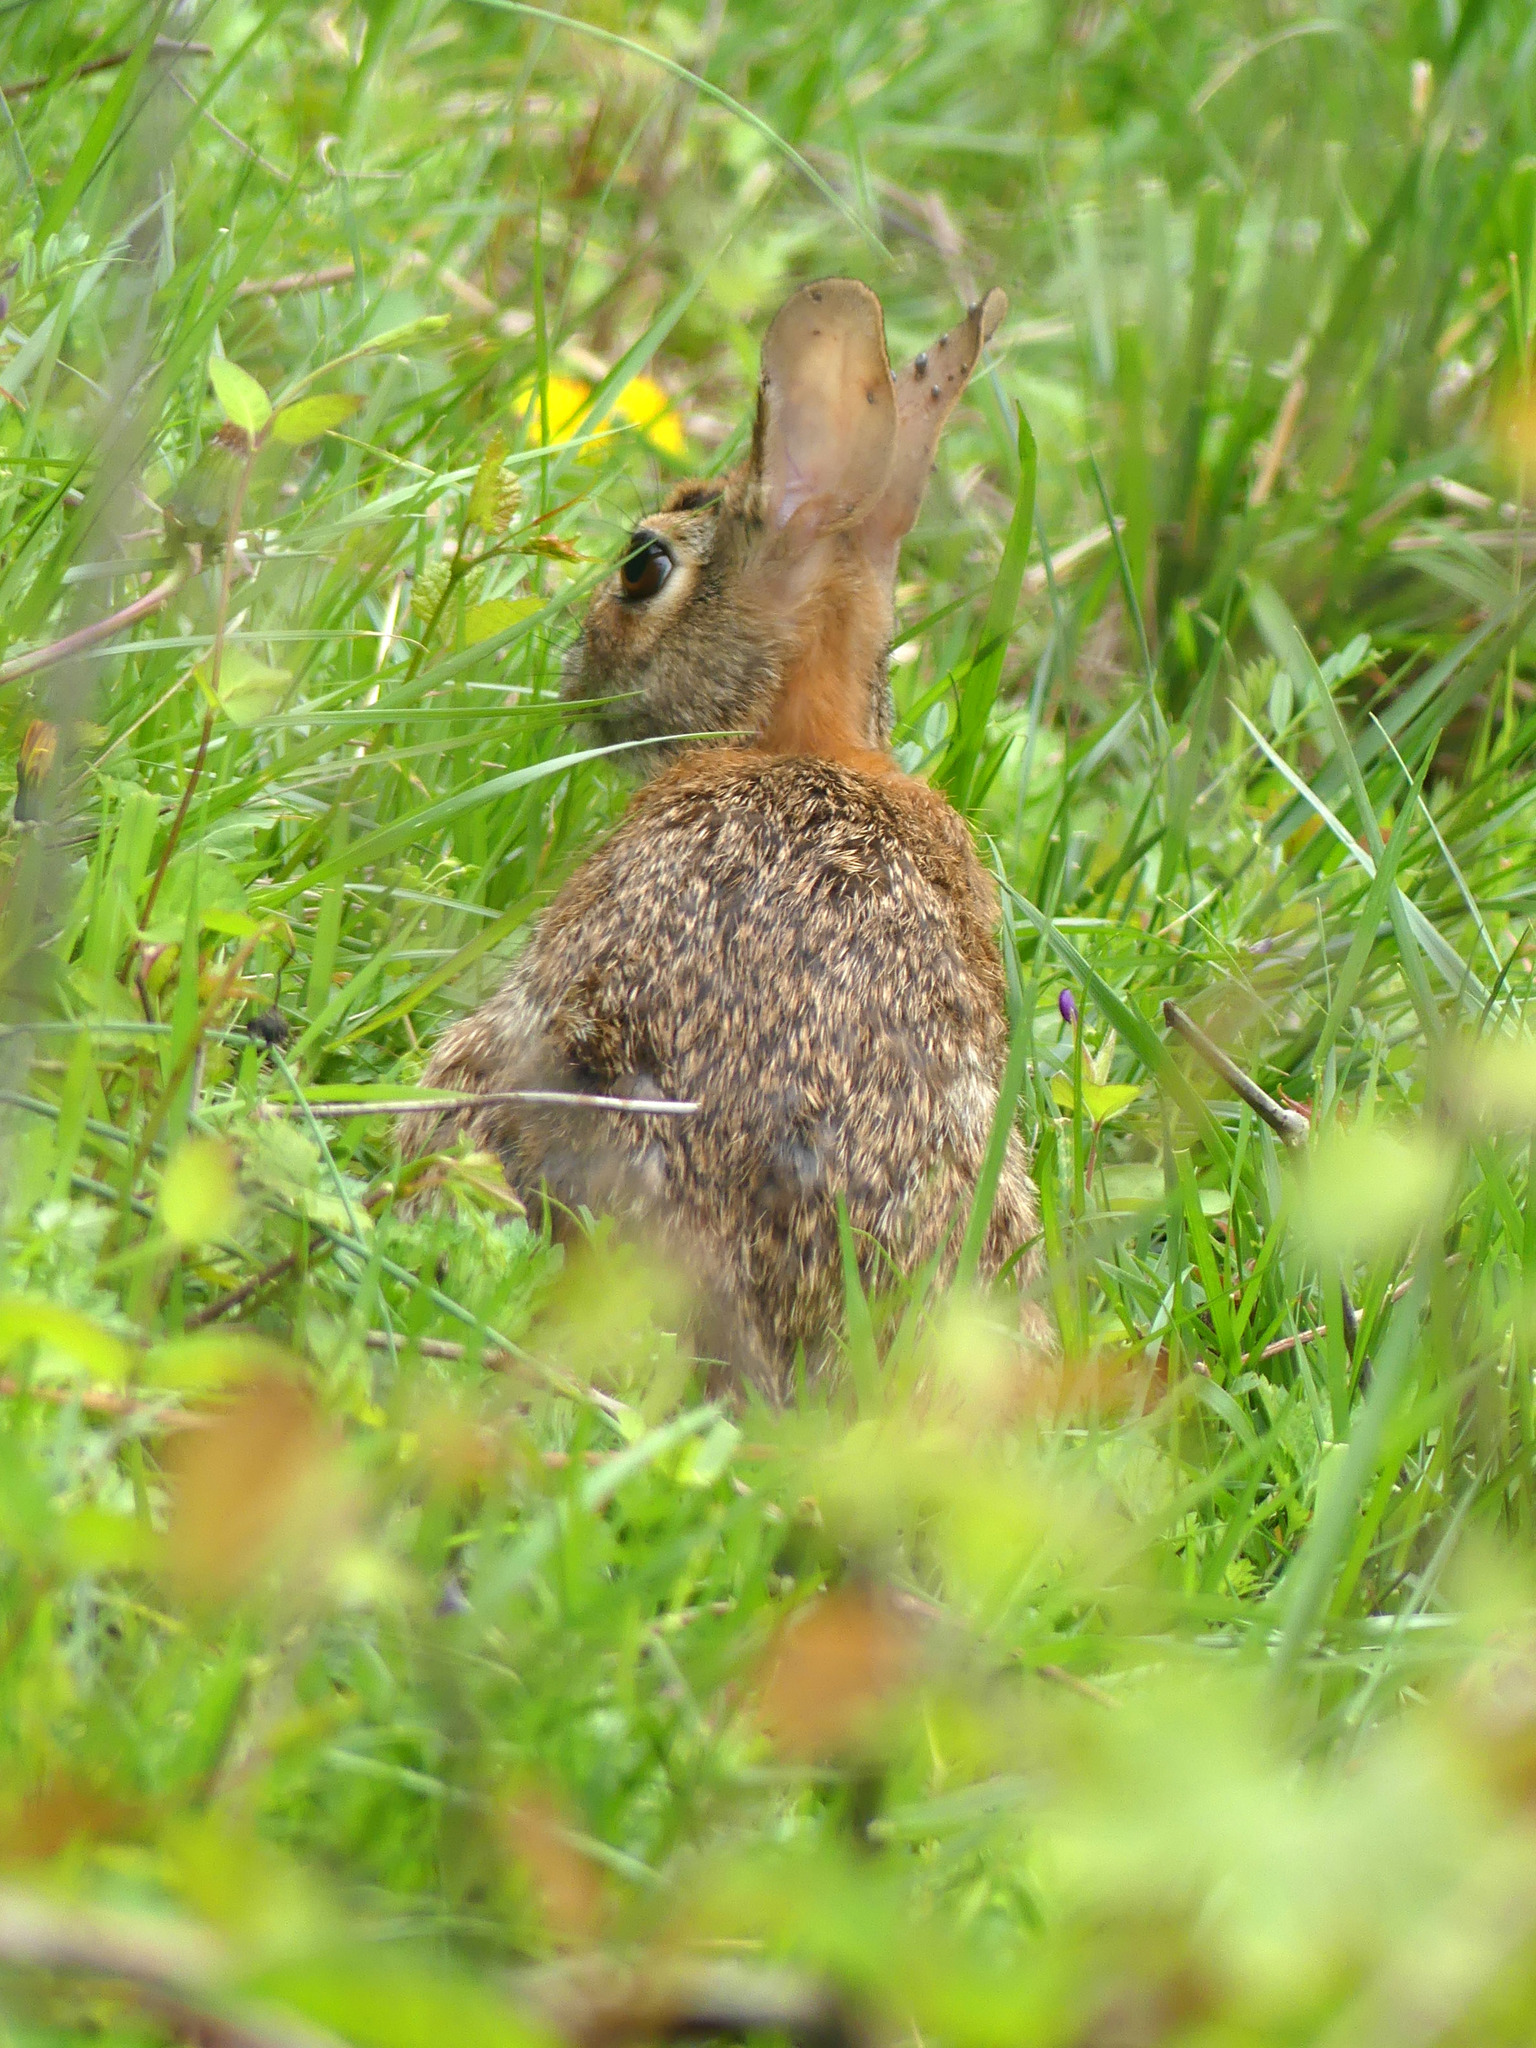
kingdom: Animalia
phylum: Chordata
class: Mammalia
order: Lagomorpha
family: Leporidae
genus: Sylvilagus
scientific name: Sylvilagus floridanus
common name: Eastern cottontail
